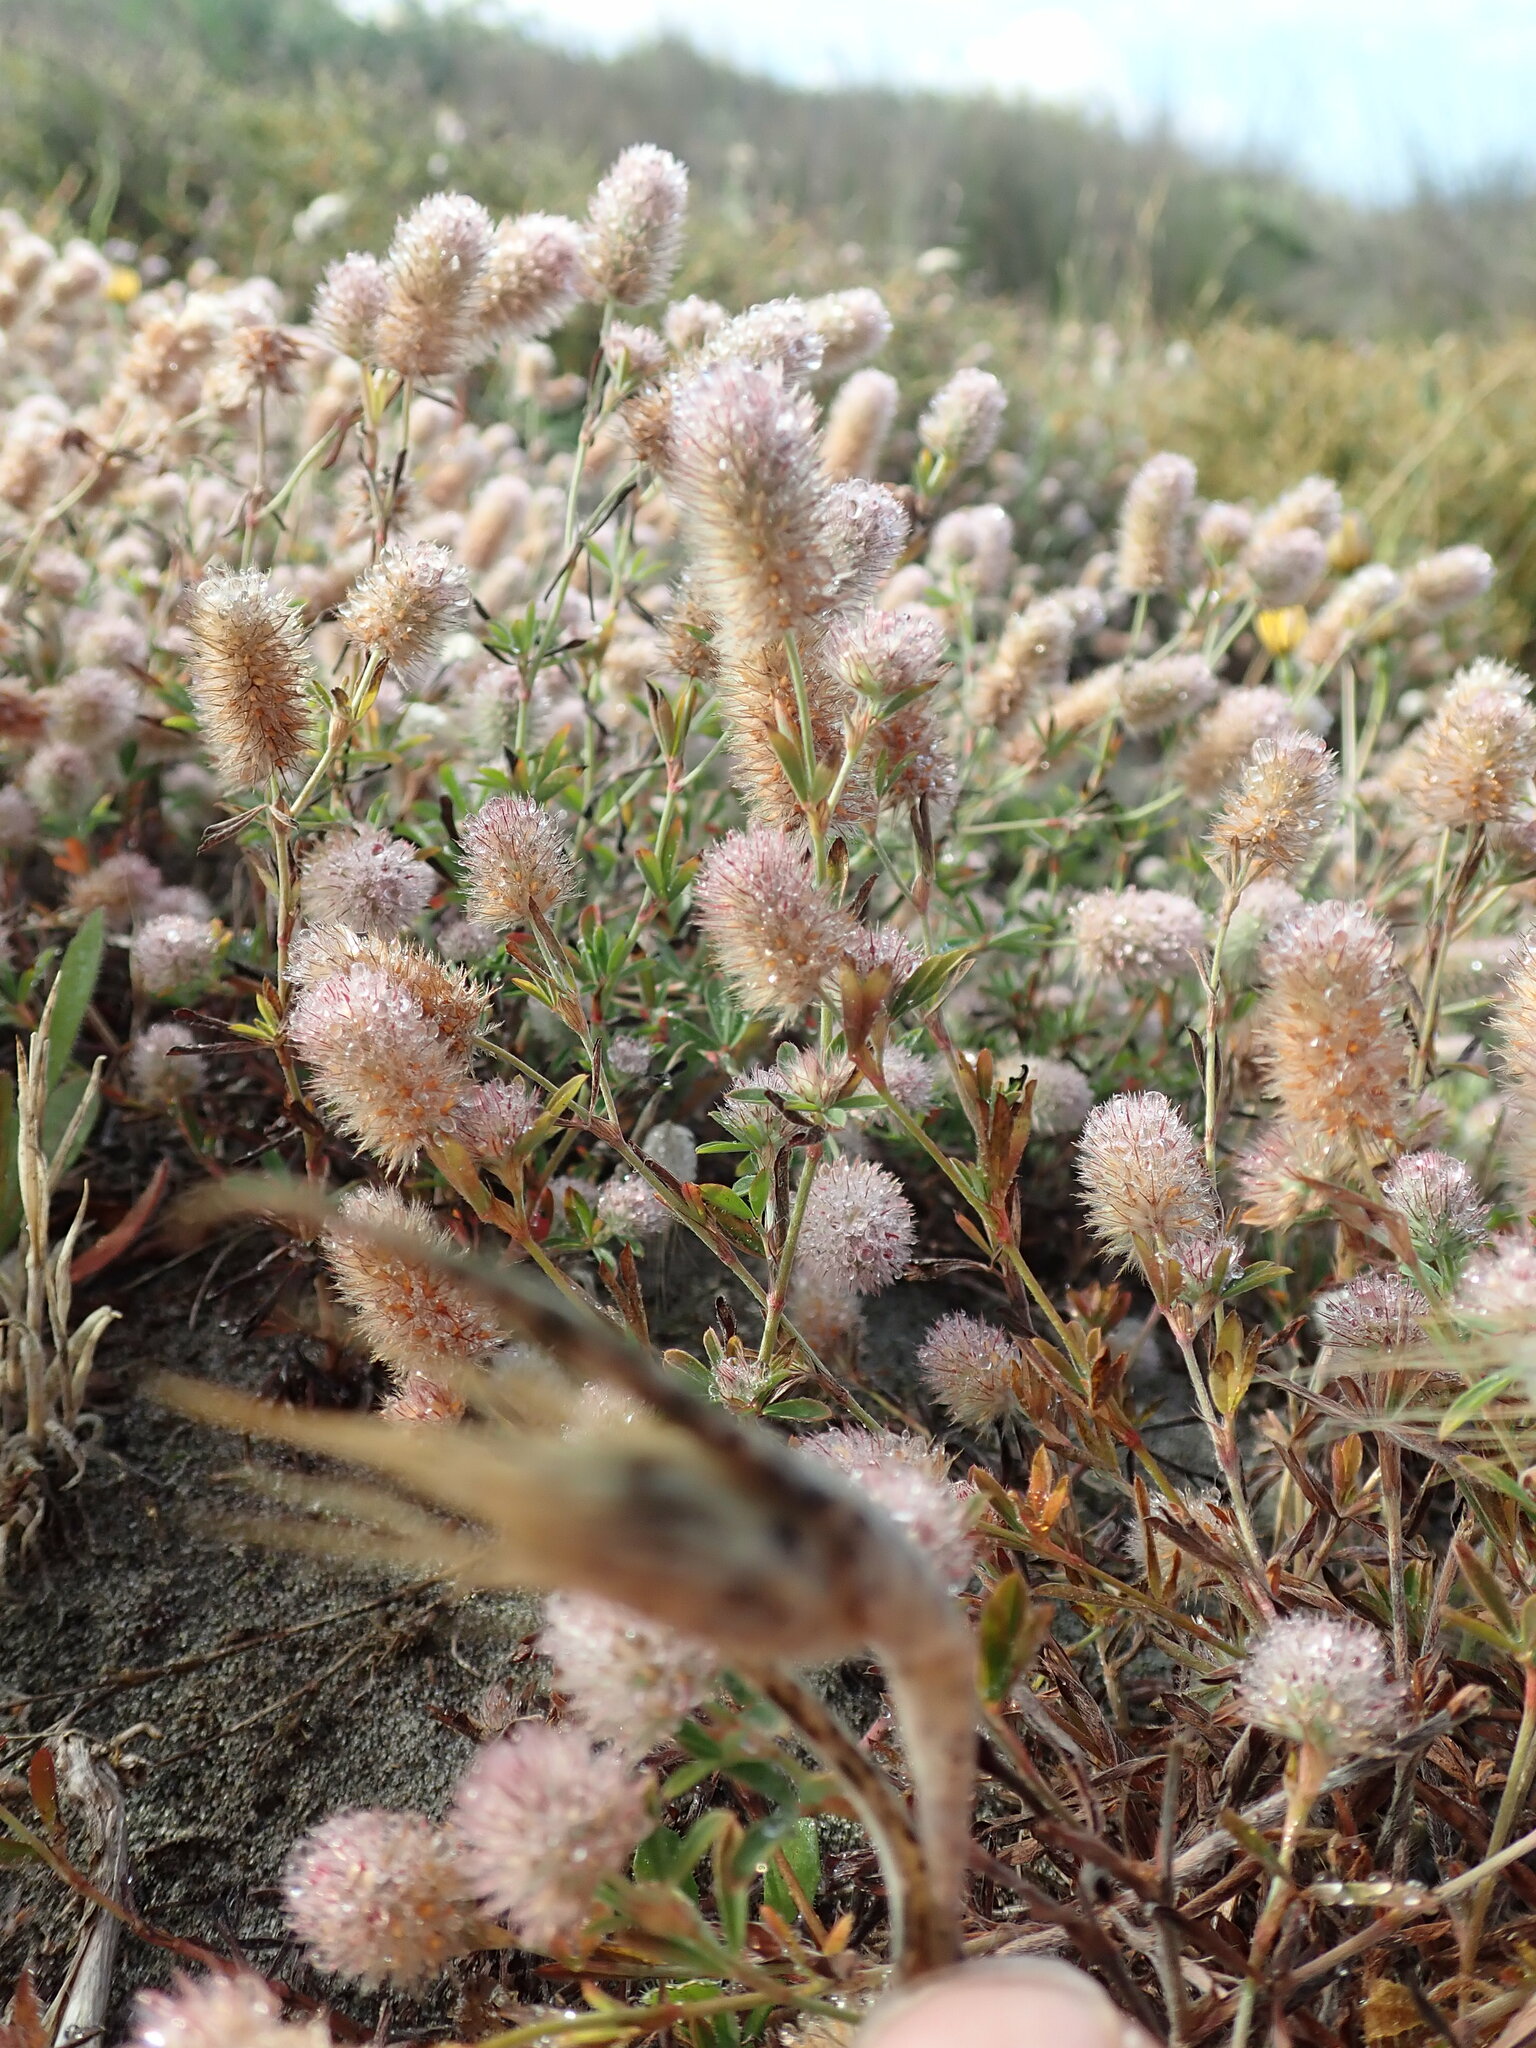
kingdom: Plantae
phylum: Tracheophyta
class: Magnoliopsida
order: Fabales
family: Fabaceae
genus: Trifolium
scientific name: Trifolium arvense
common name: Hare's-foot clover
